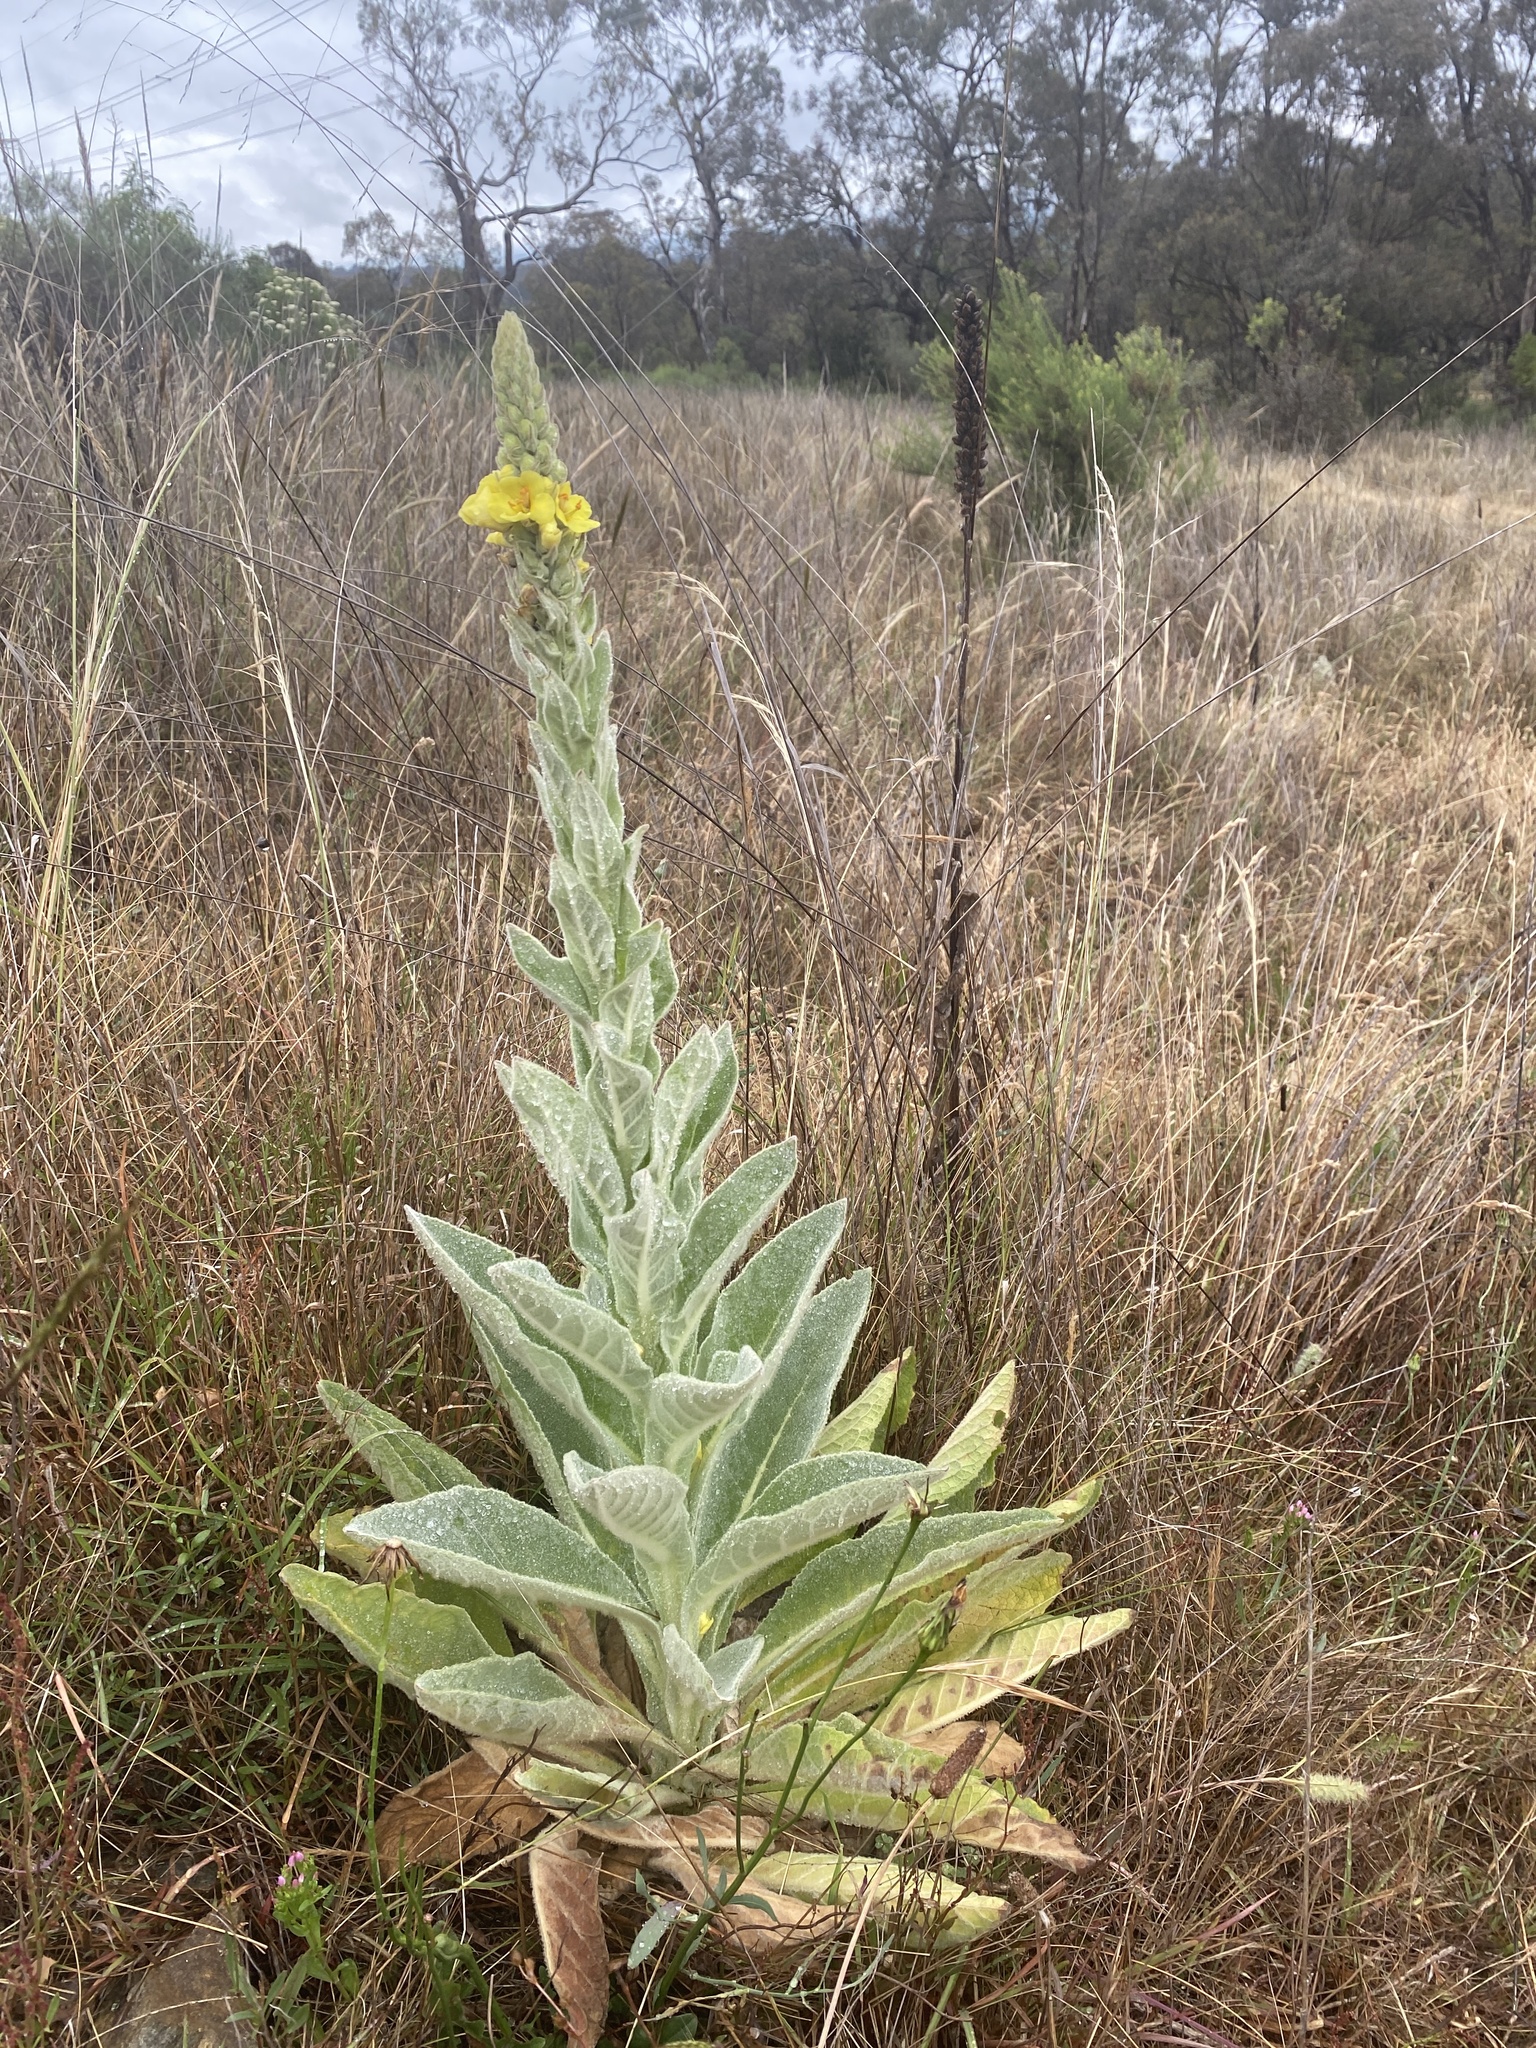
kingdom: Plantae
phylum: Tracheophyta
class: Magnoliopsida
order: Lamiales
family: Scrophulariaceae
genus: Verbascum
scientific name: Verbascum thapsus
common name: Common mullein
